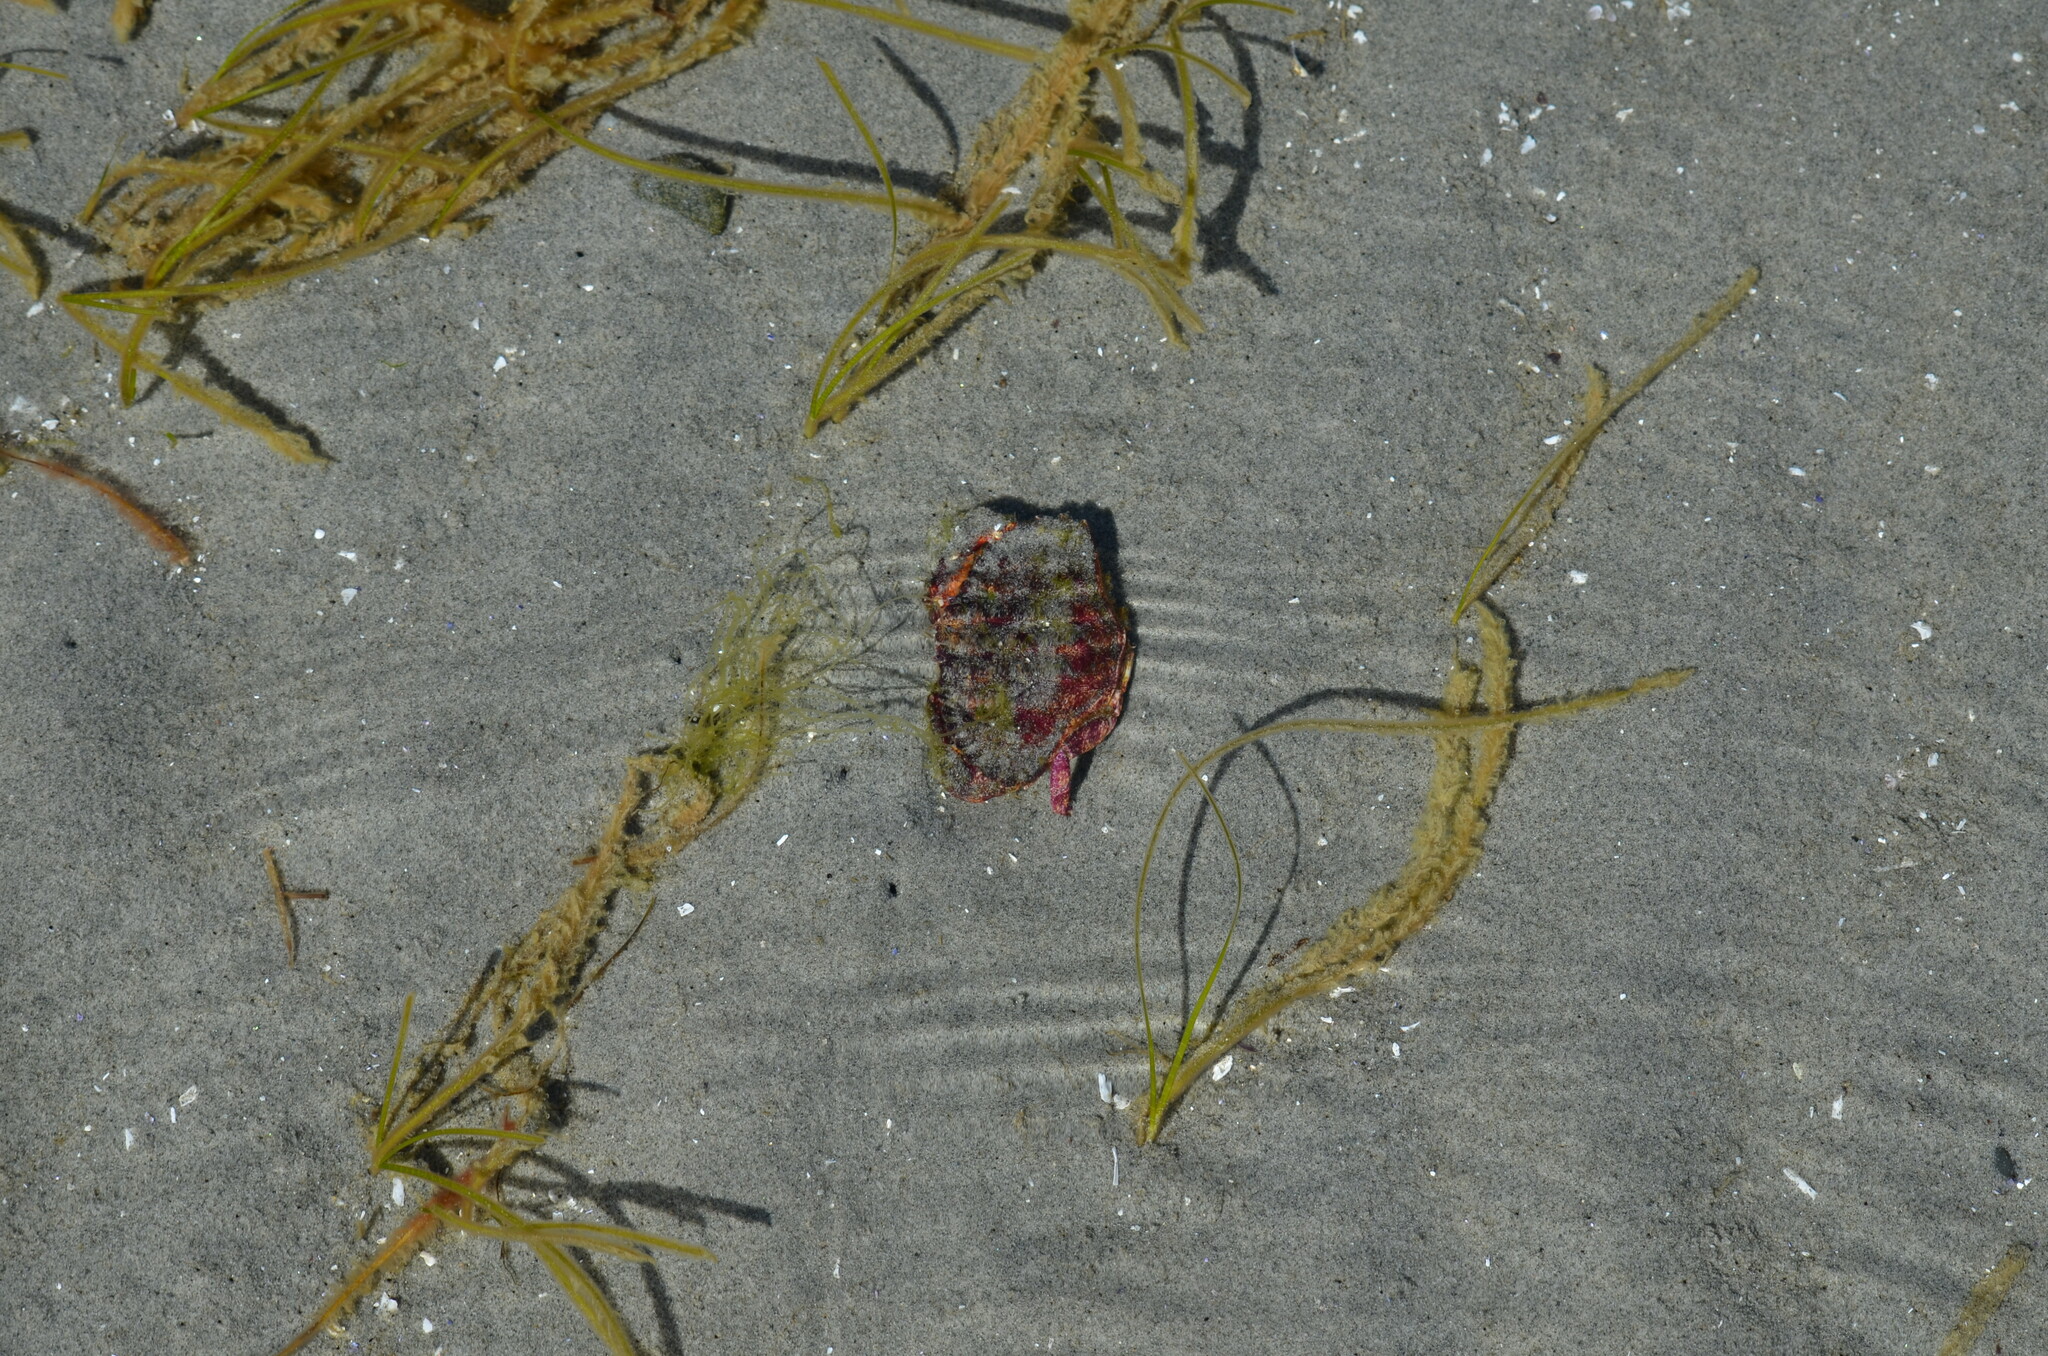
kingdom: Animalia
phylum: Arthropoda
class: Malacostraca
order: Decapoda
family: Cancridae
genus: Cancer
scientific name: Cancer productus
